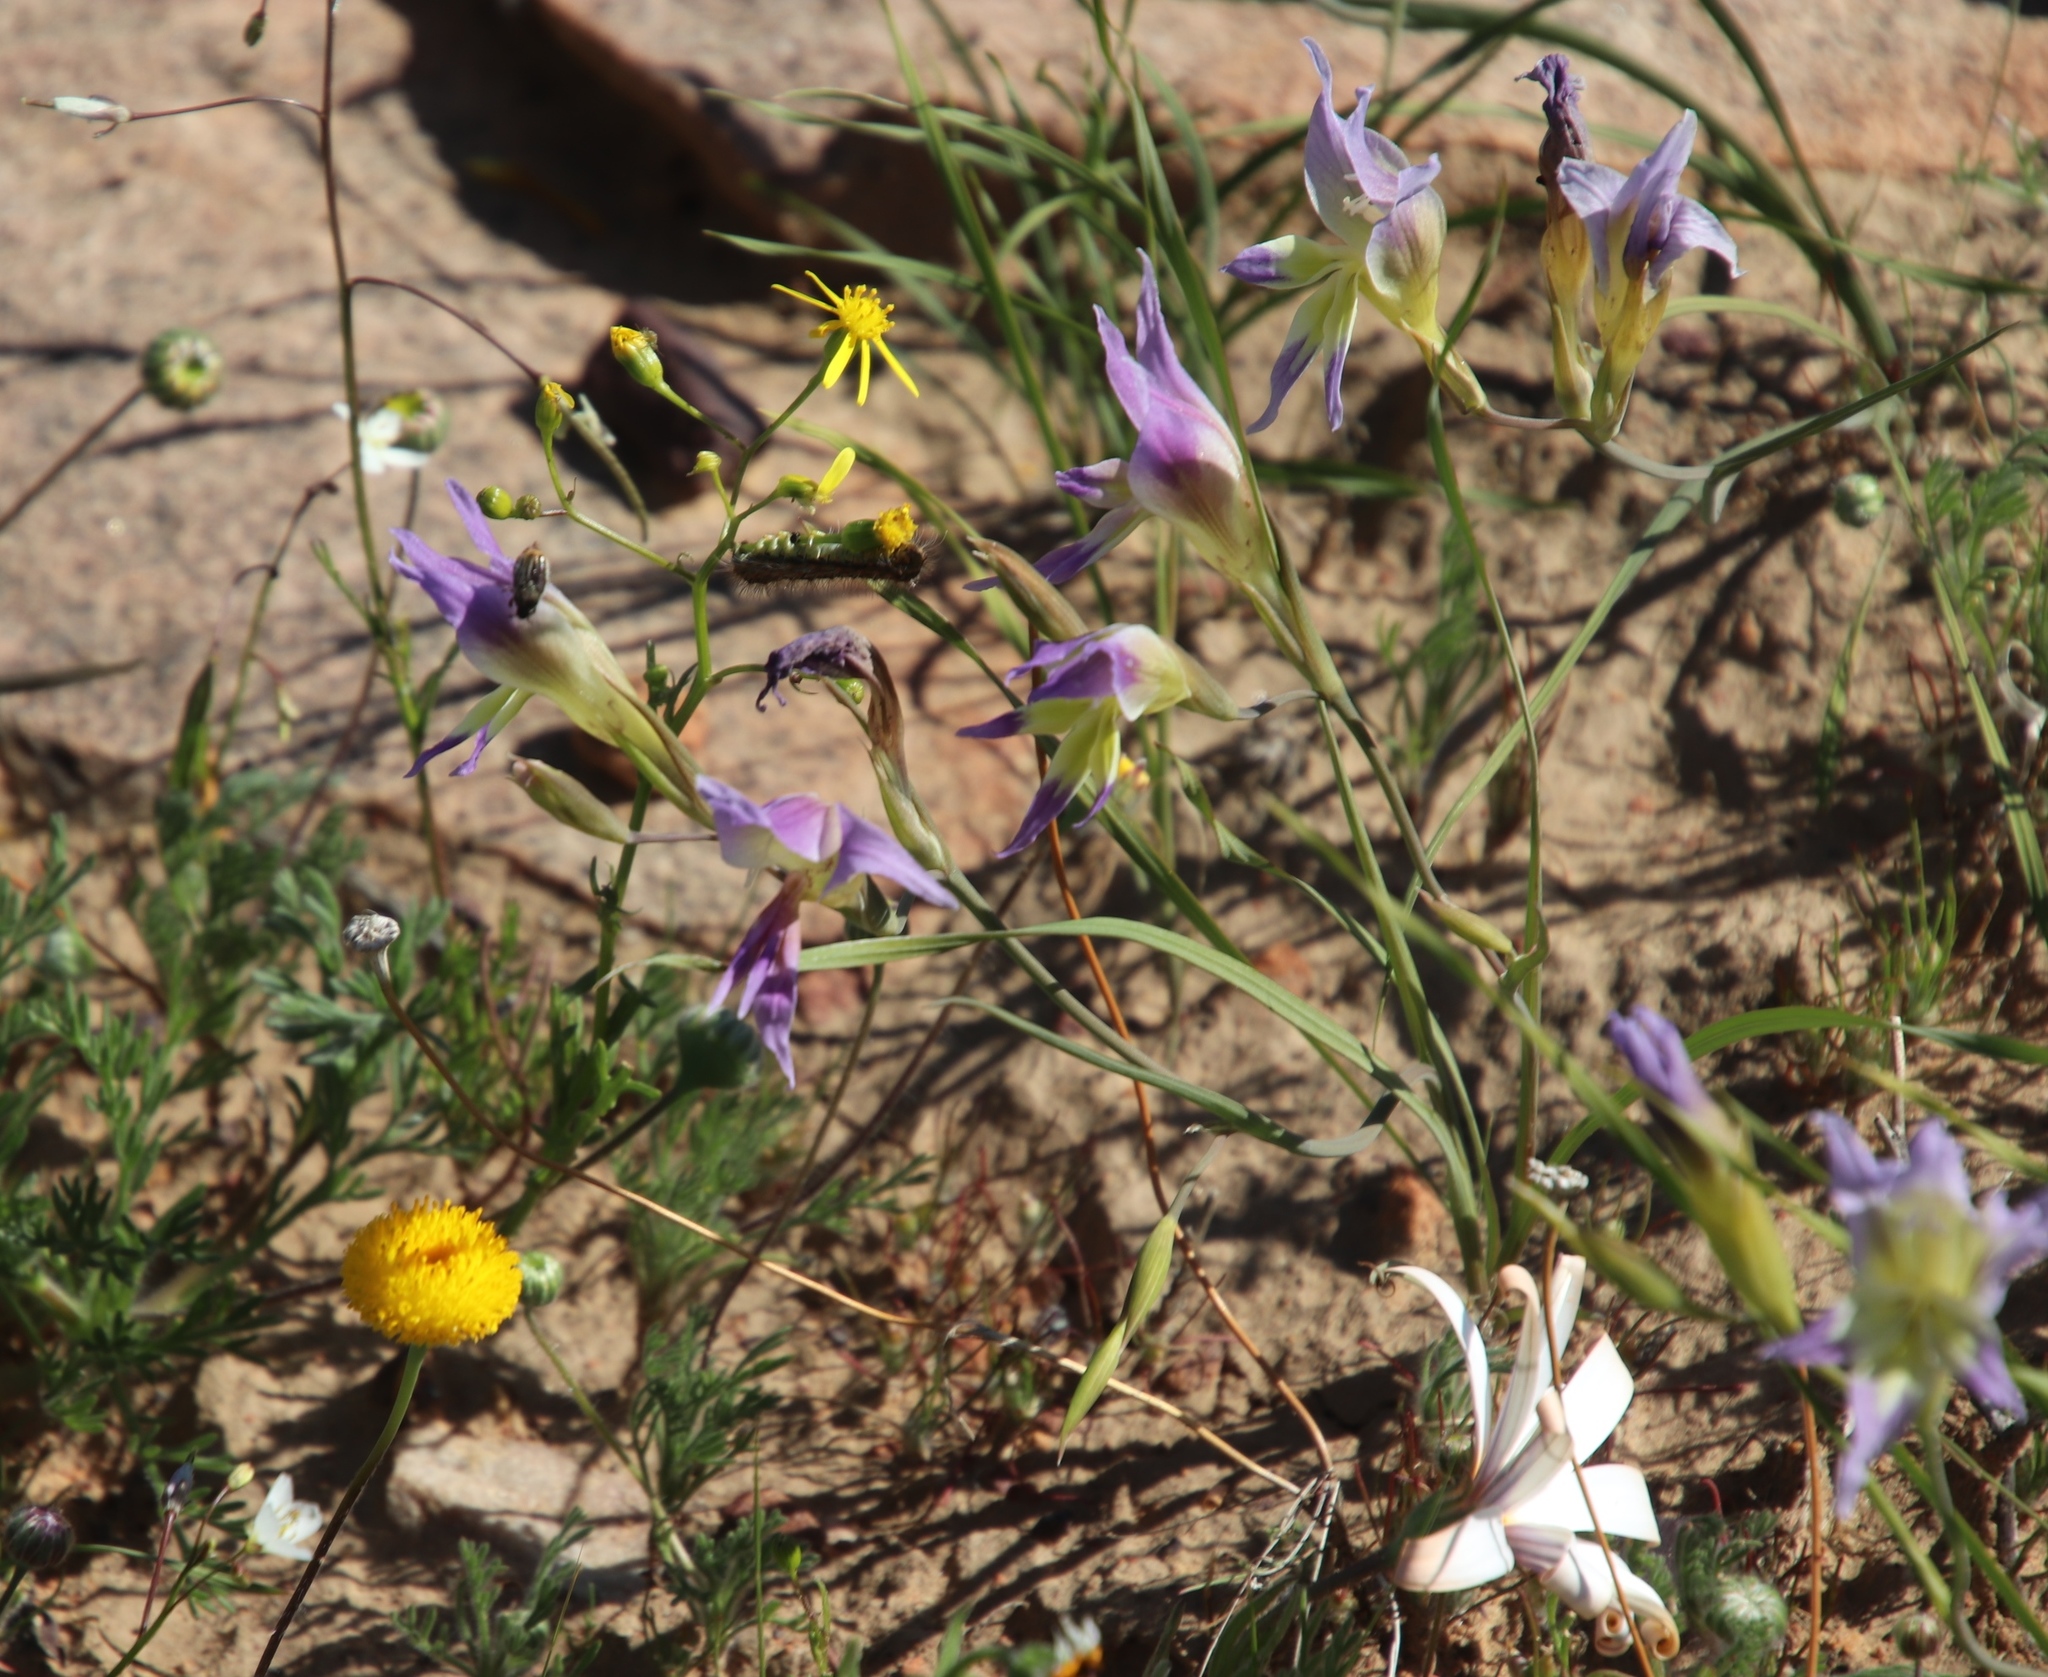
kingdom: Plantae
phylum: Tracheophyta
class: Liliopsida
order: Asparagales
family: Iridaceae
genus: Gladiolus
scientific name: Gladiolus venustus
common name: Purple kalkoentjie
